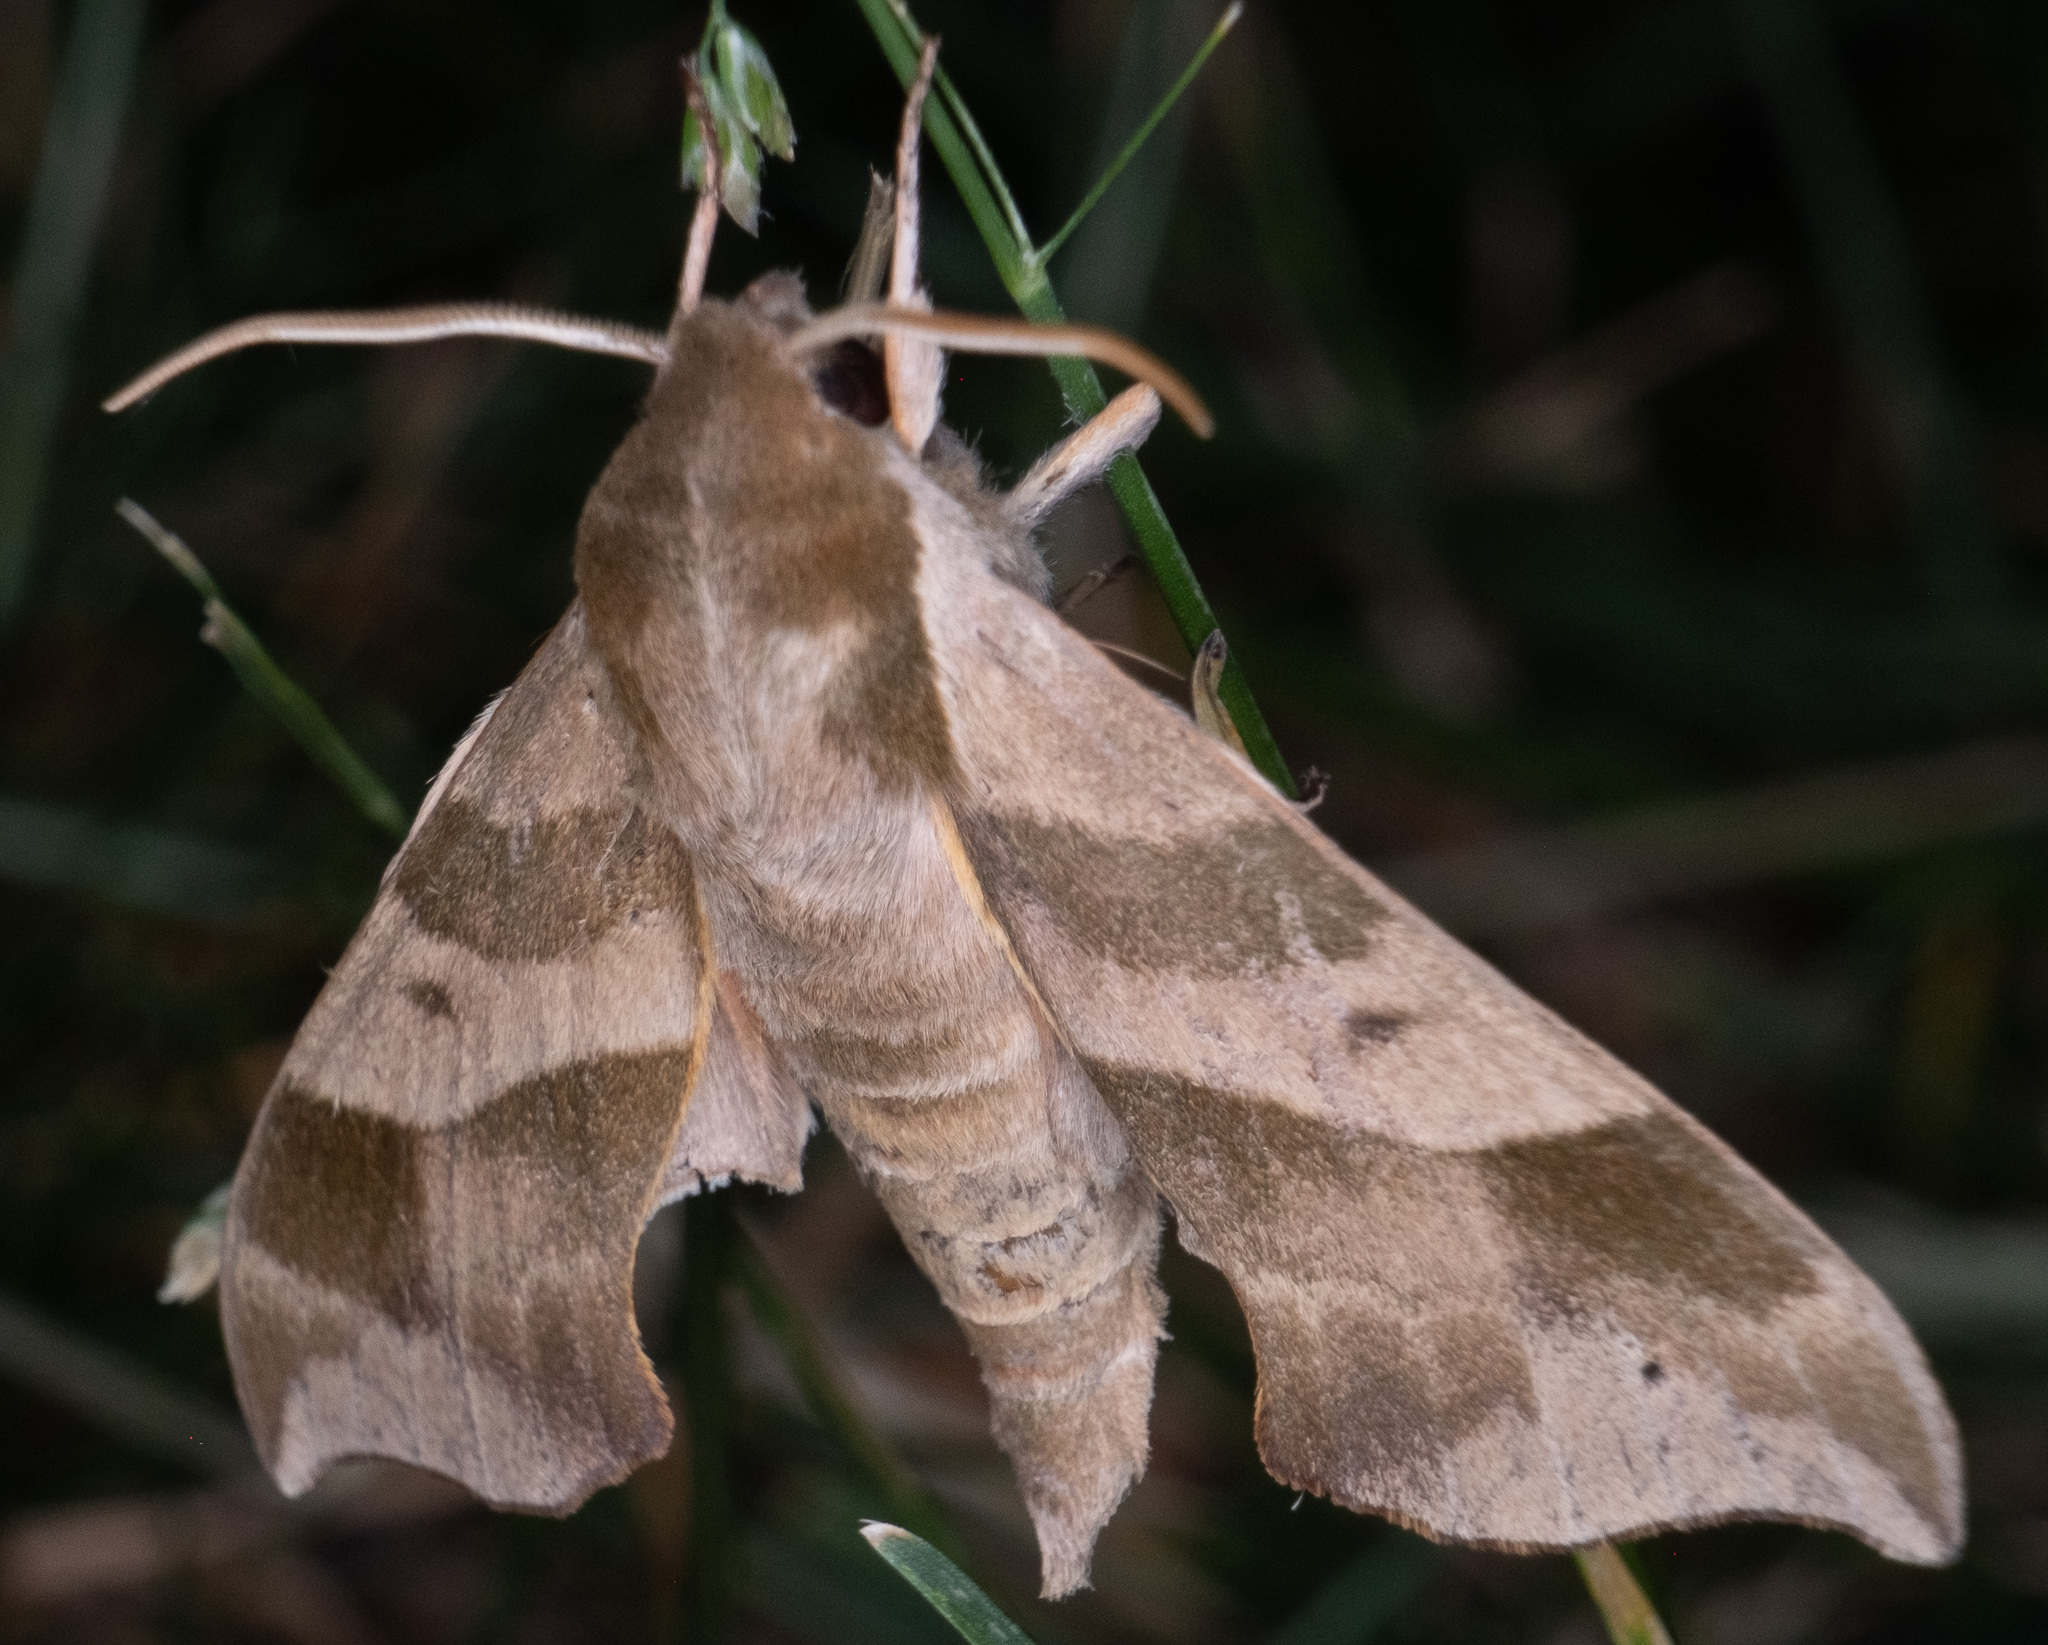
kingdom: Animalia
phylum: Arthropoda
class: Insecta
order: Lepidoptera
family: Sphingidae
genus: Darapsa
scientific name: Darapsa myron
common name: Hog sphinx
